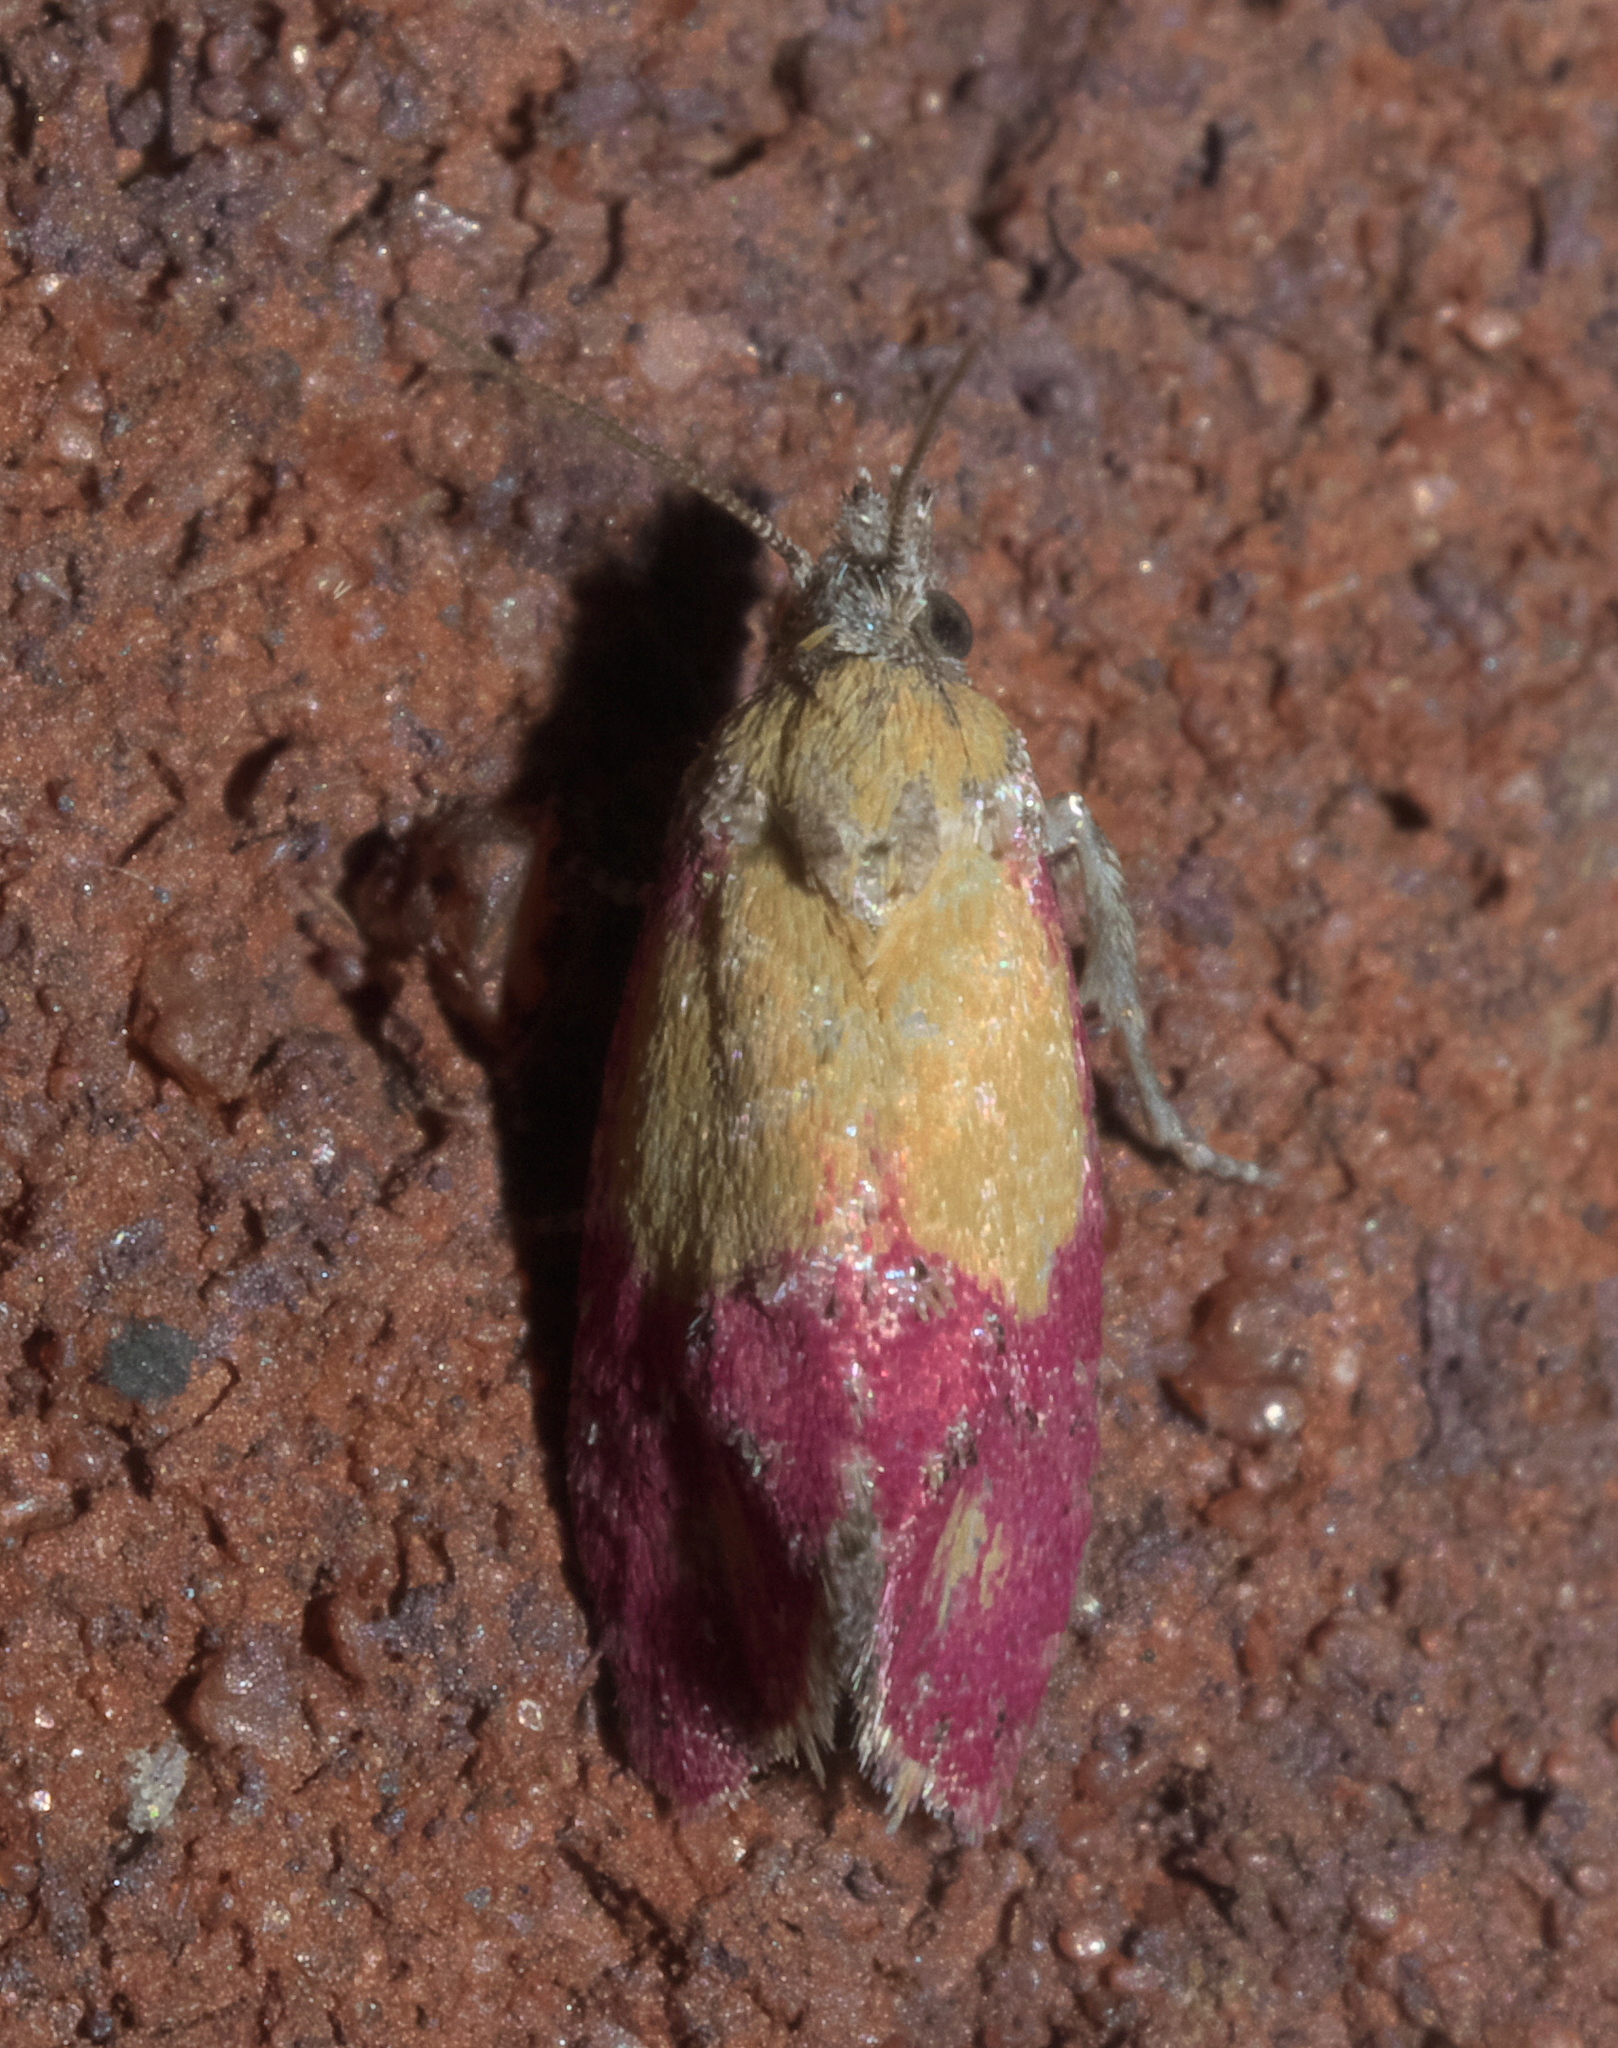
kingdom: Animalia
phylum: Arthropoda
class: Insecta
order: Lepidoptera
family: Tortricidae
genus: Conchylis
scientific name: Conchylis oenotherana
